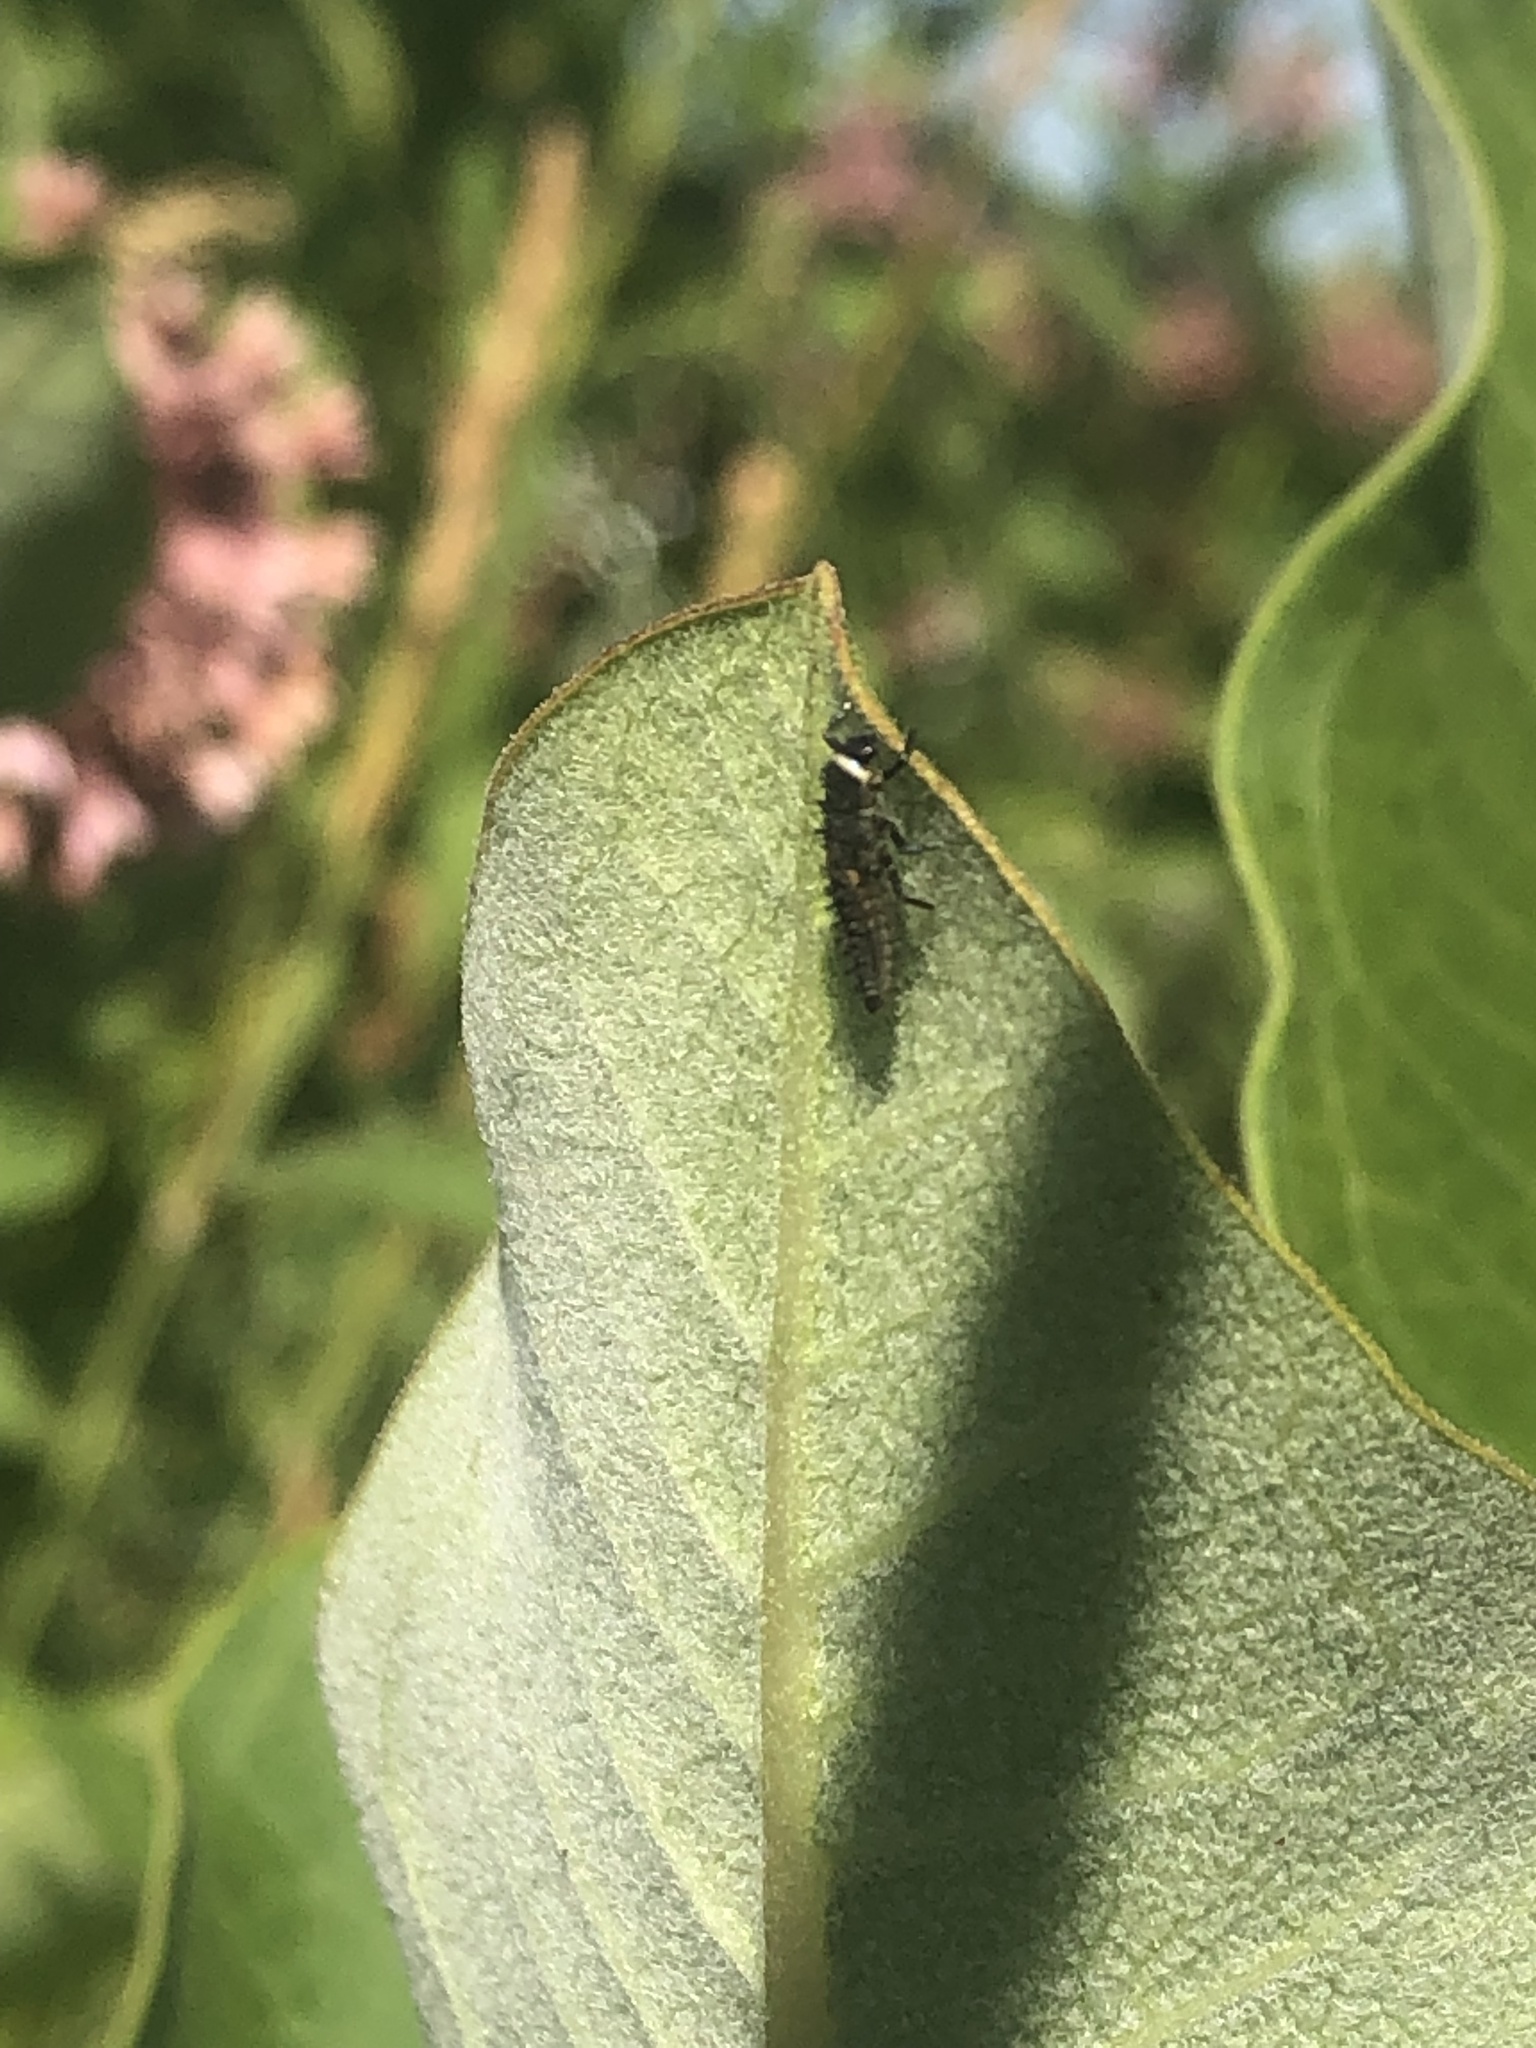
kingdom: Animalia
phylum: Arthropoda
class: Insecta
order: Coleoptera
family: Coccinellidae
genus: Harmonia
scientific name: Harmonia axyridis
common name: Harlequin ladybird
